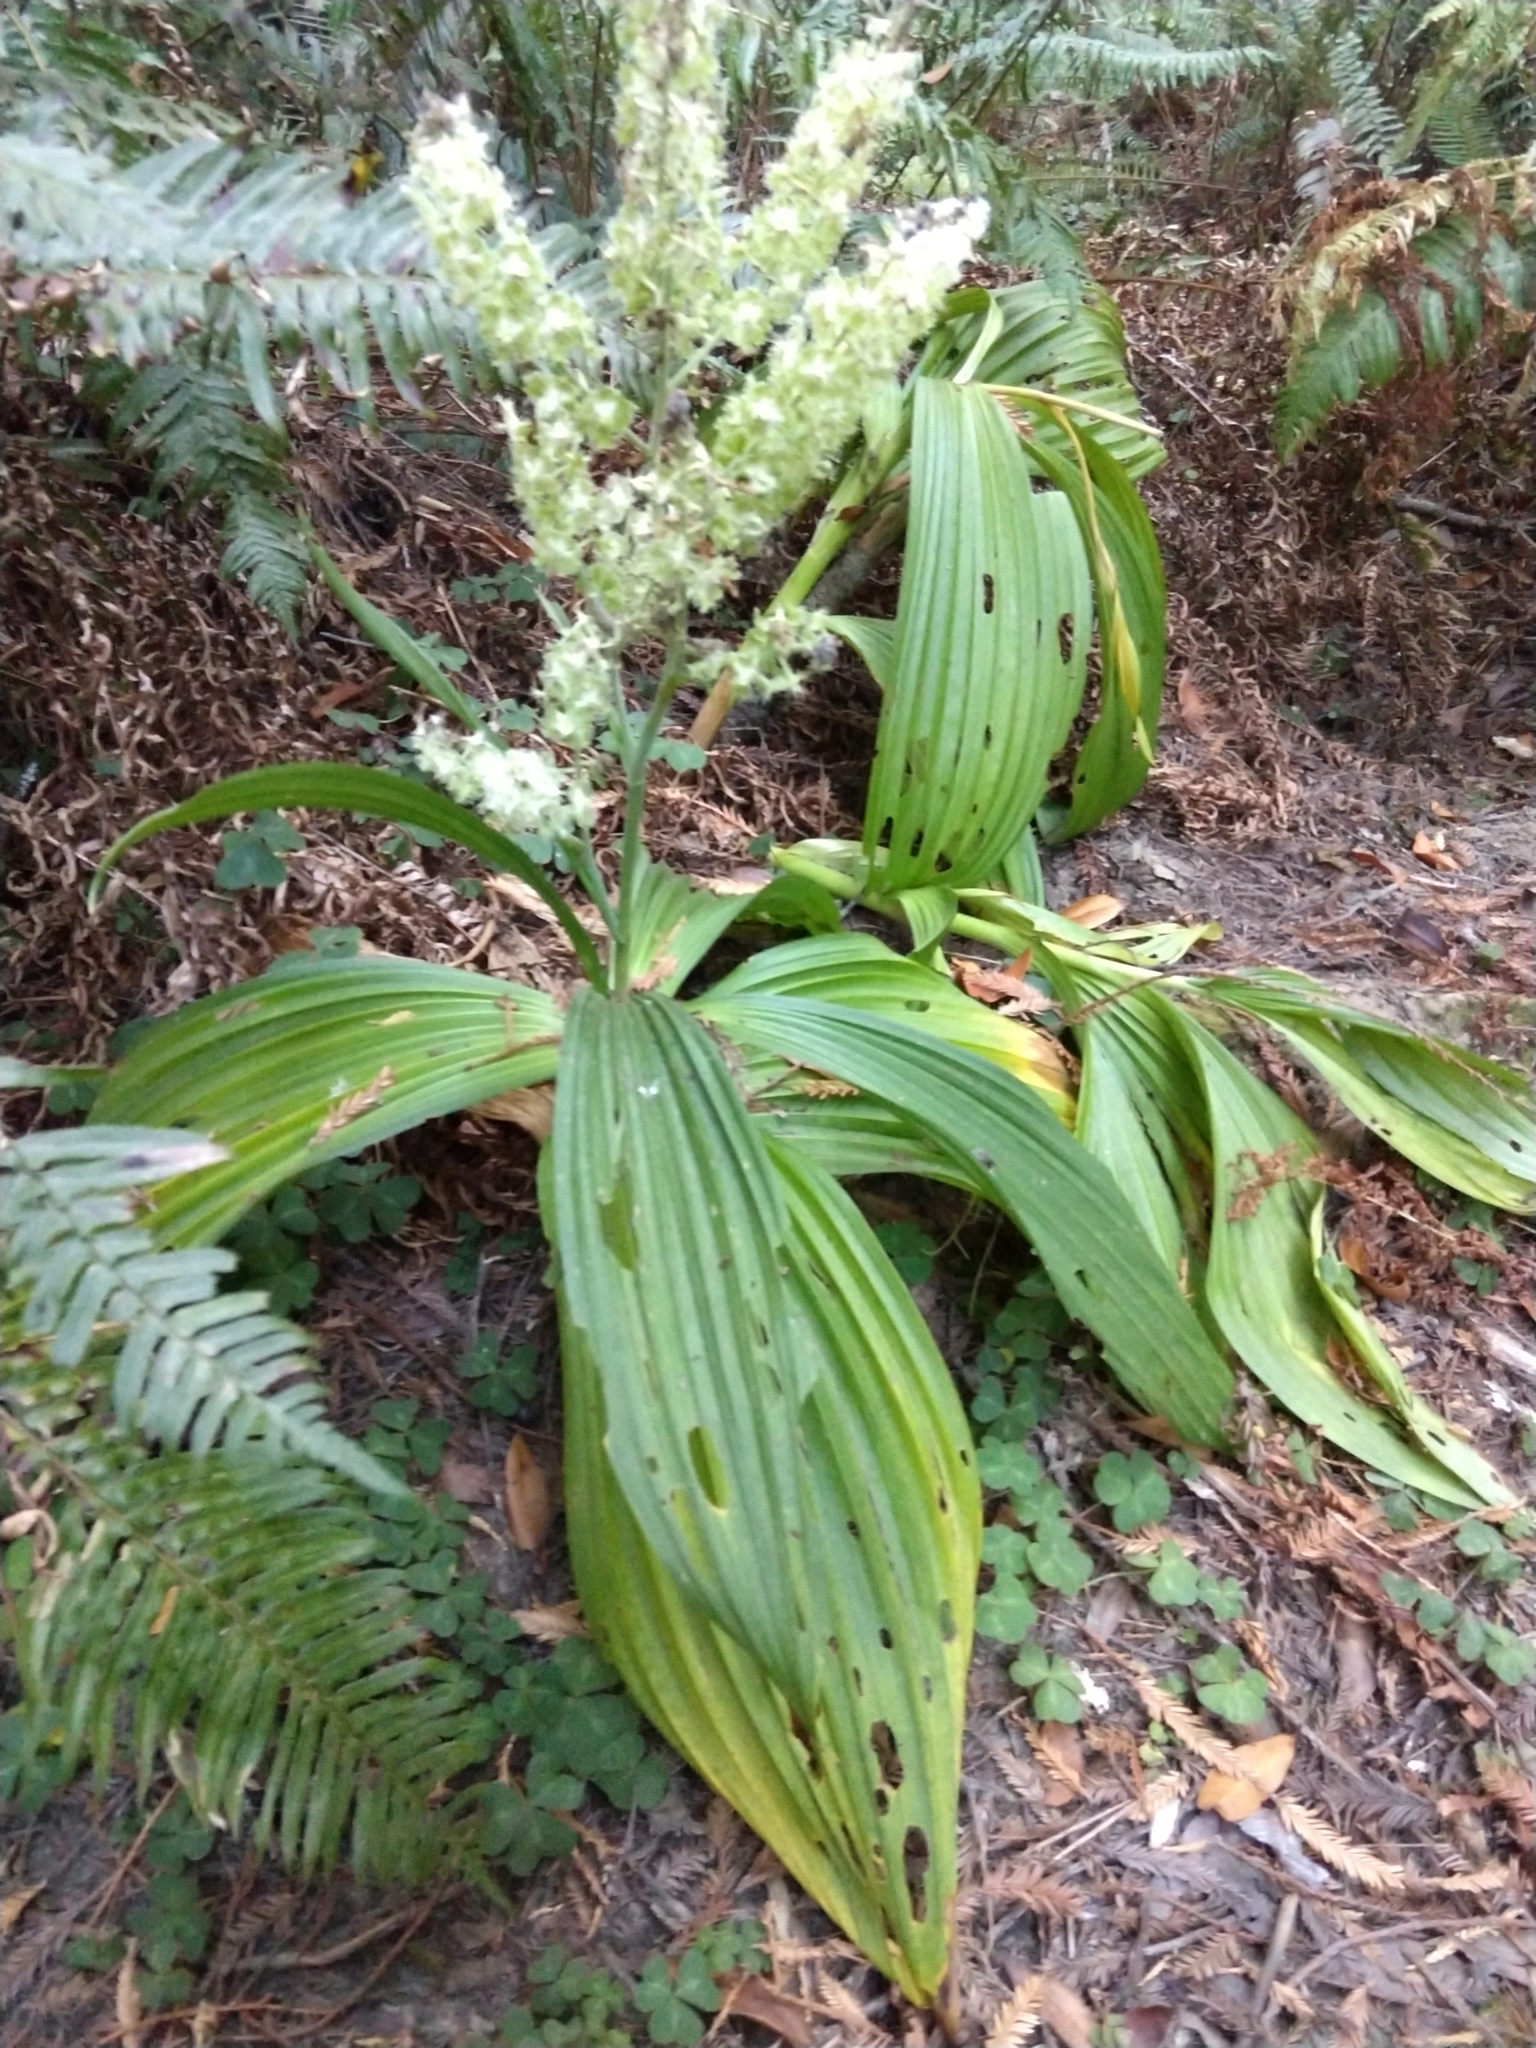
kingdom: Plantae
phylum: Tracheophyta
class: Liliopsida
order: Liliales
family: Melanthiaceae
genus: Veratrum
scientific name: Veratrum fimbriatum
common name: Fringe false hellobore
